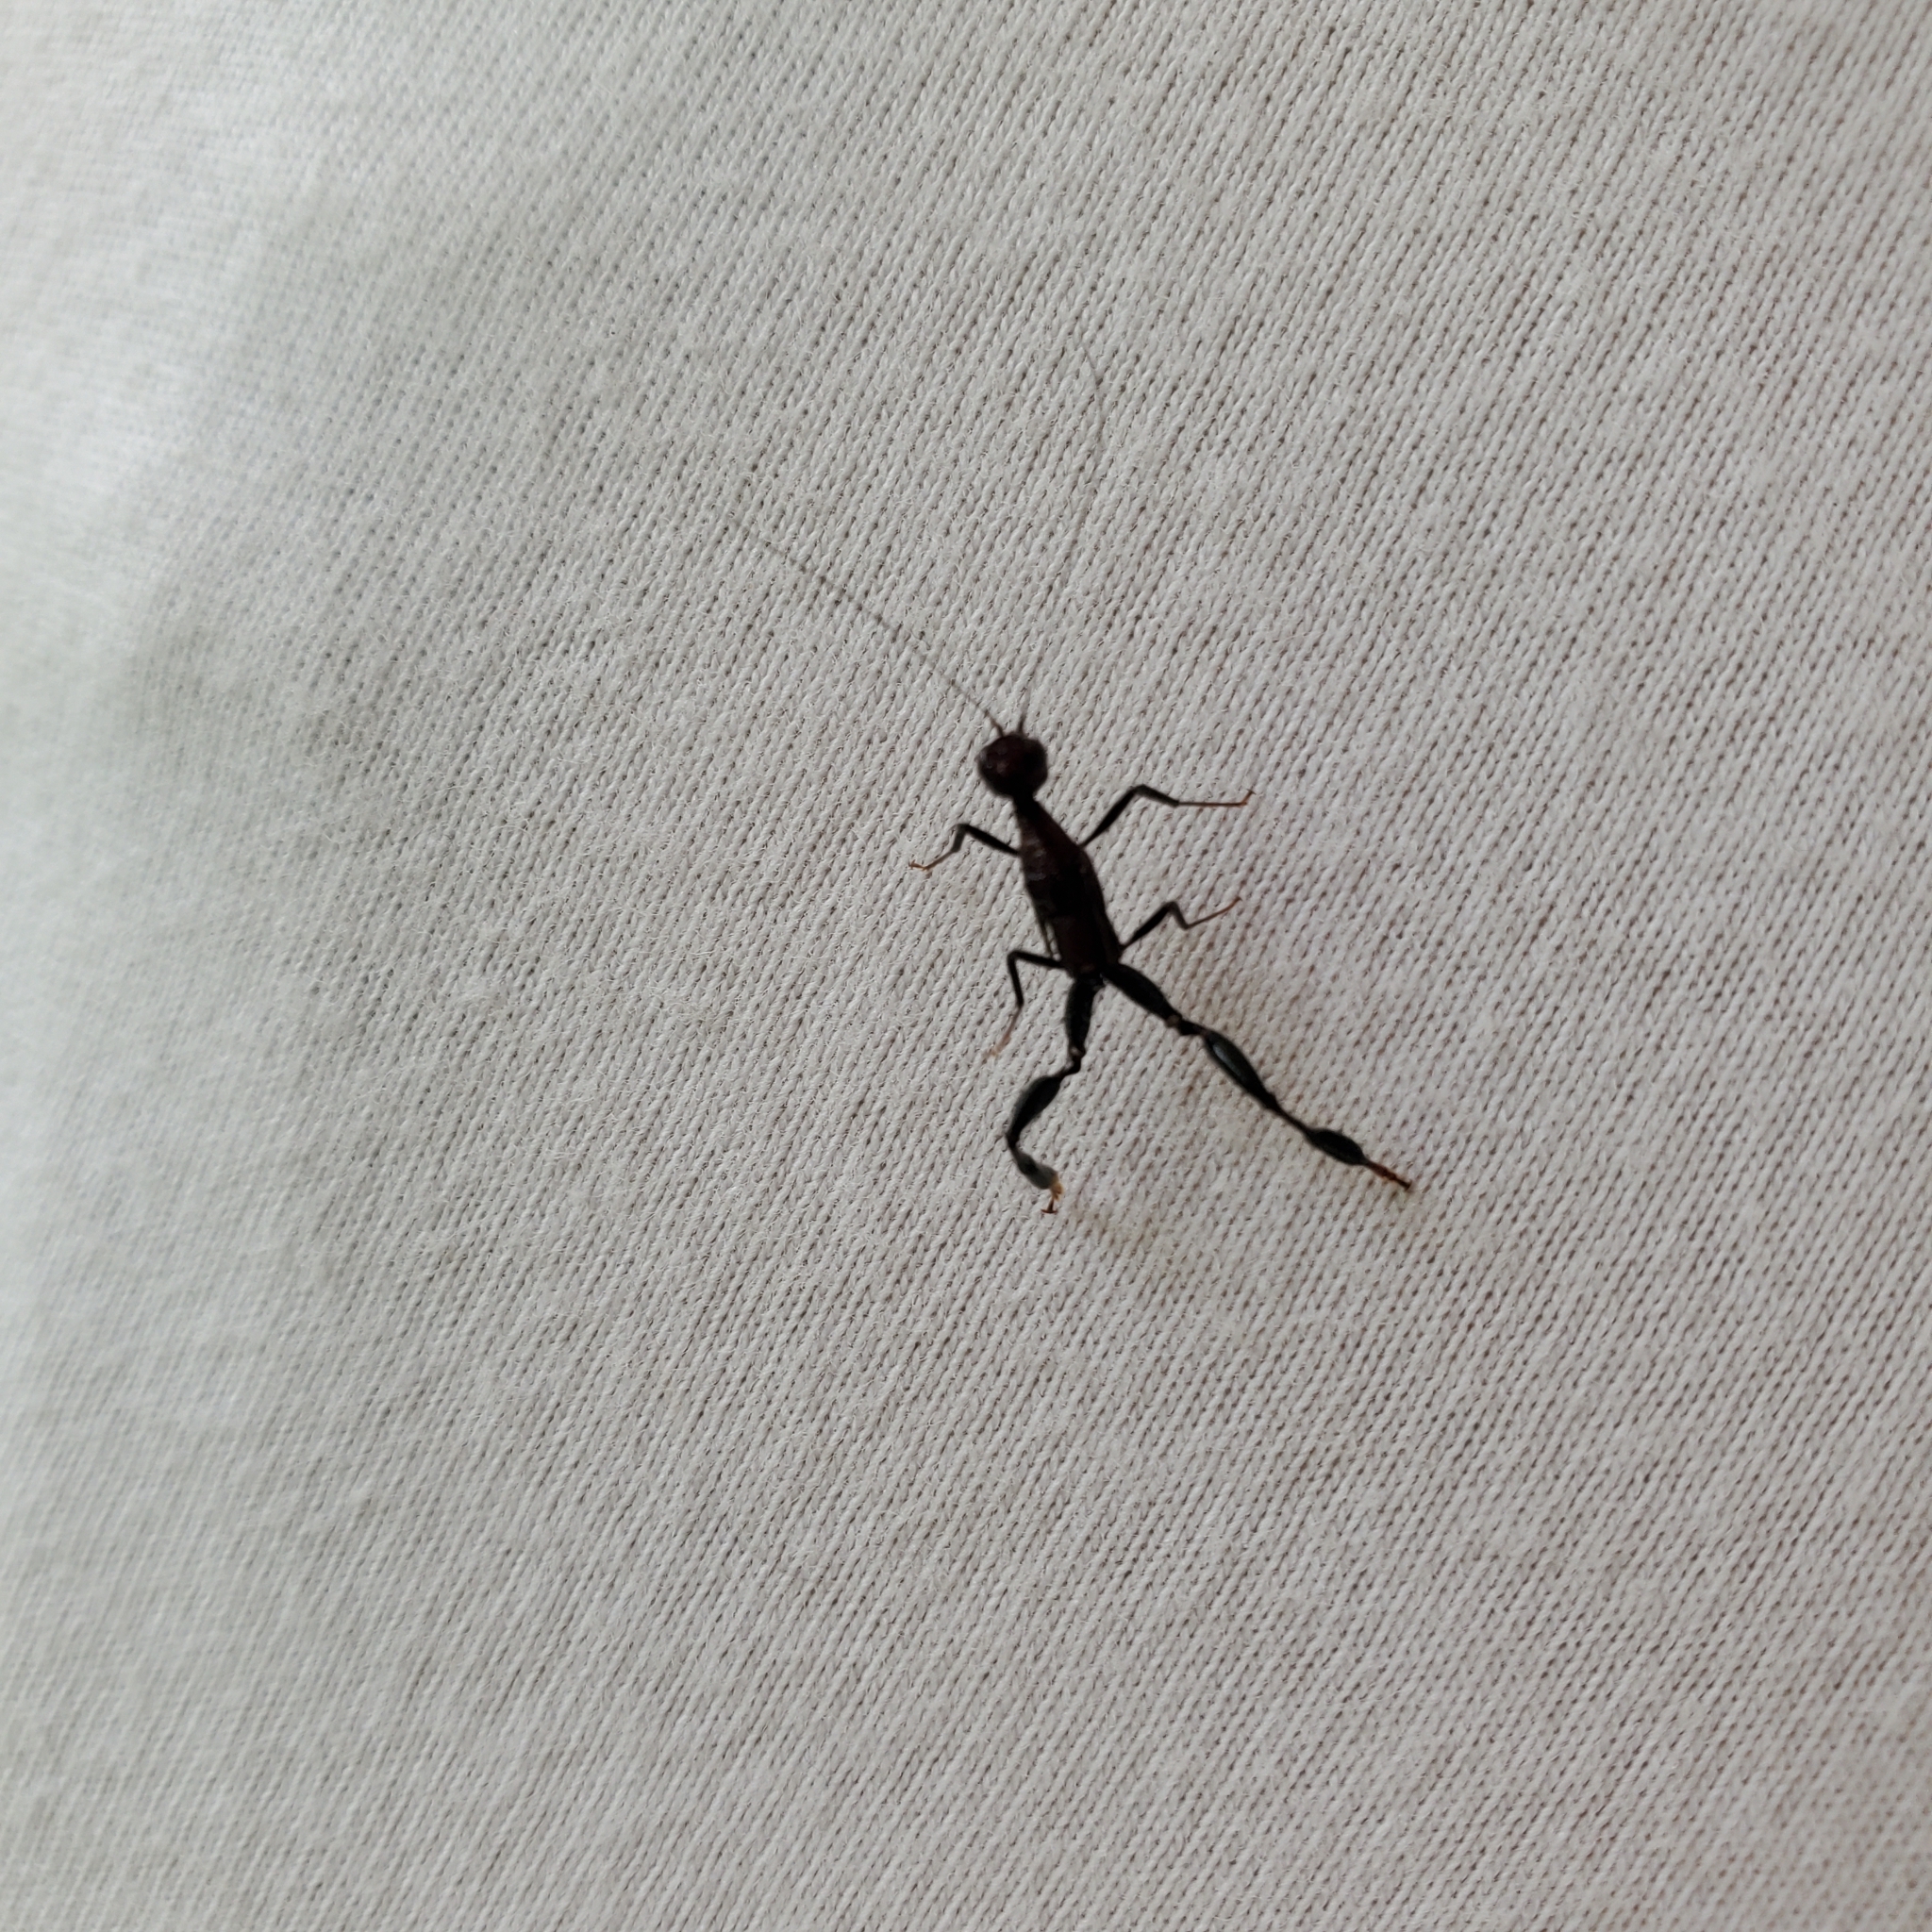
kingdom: Animalia
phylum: Arthropoda
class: Insecta
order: Hymenoptera
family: Stephanidae
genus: Megischus
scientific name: Megischus
